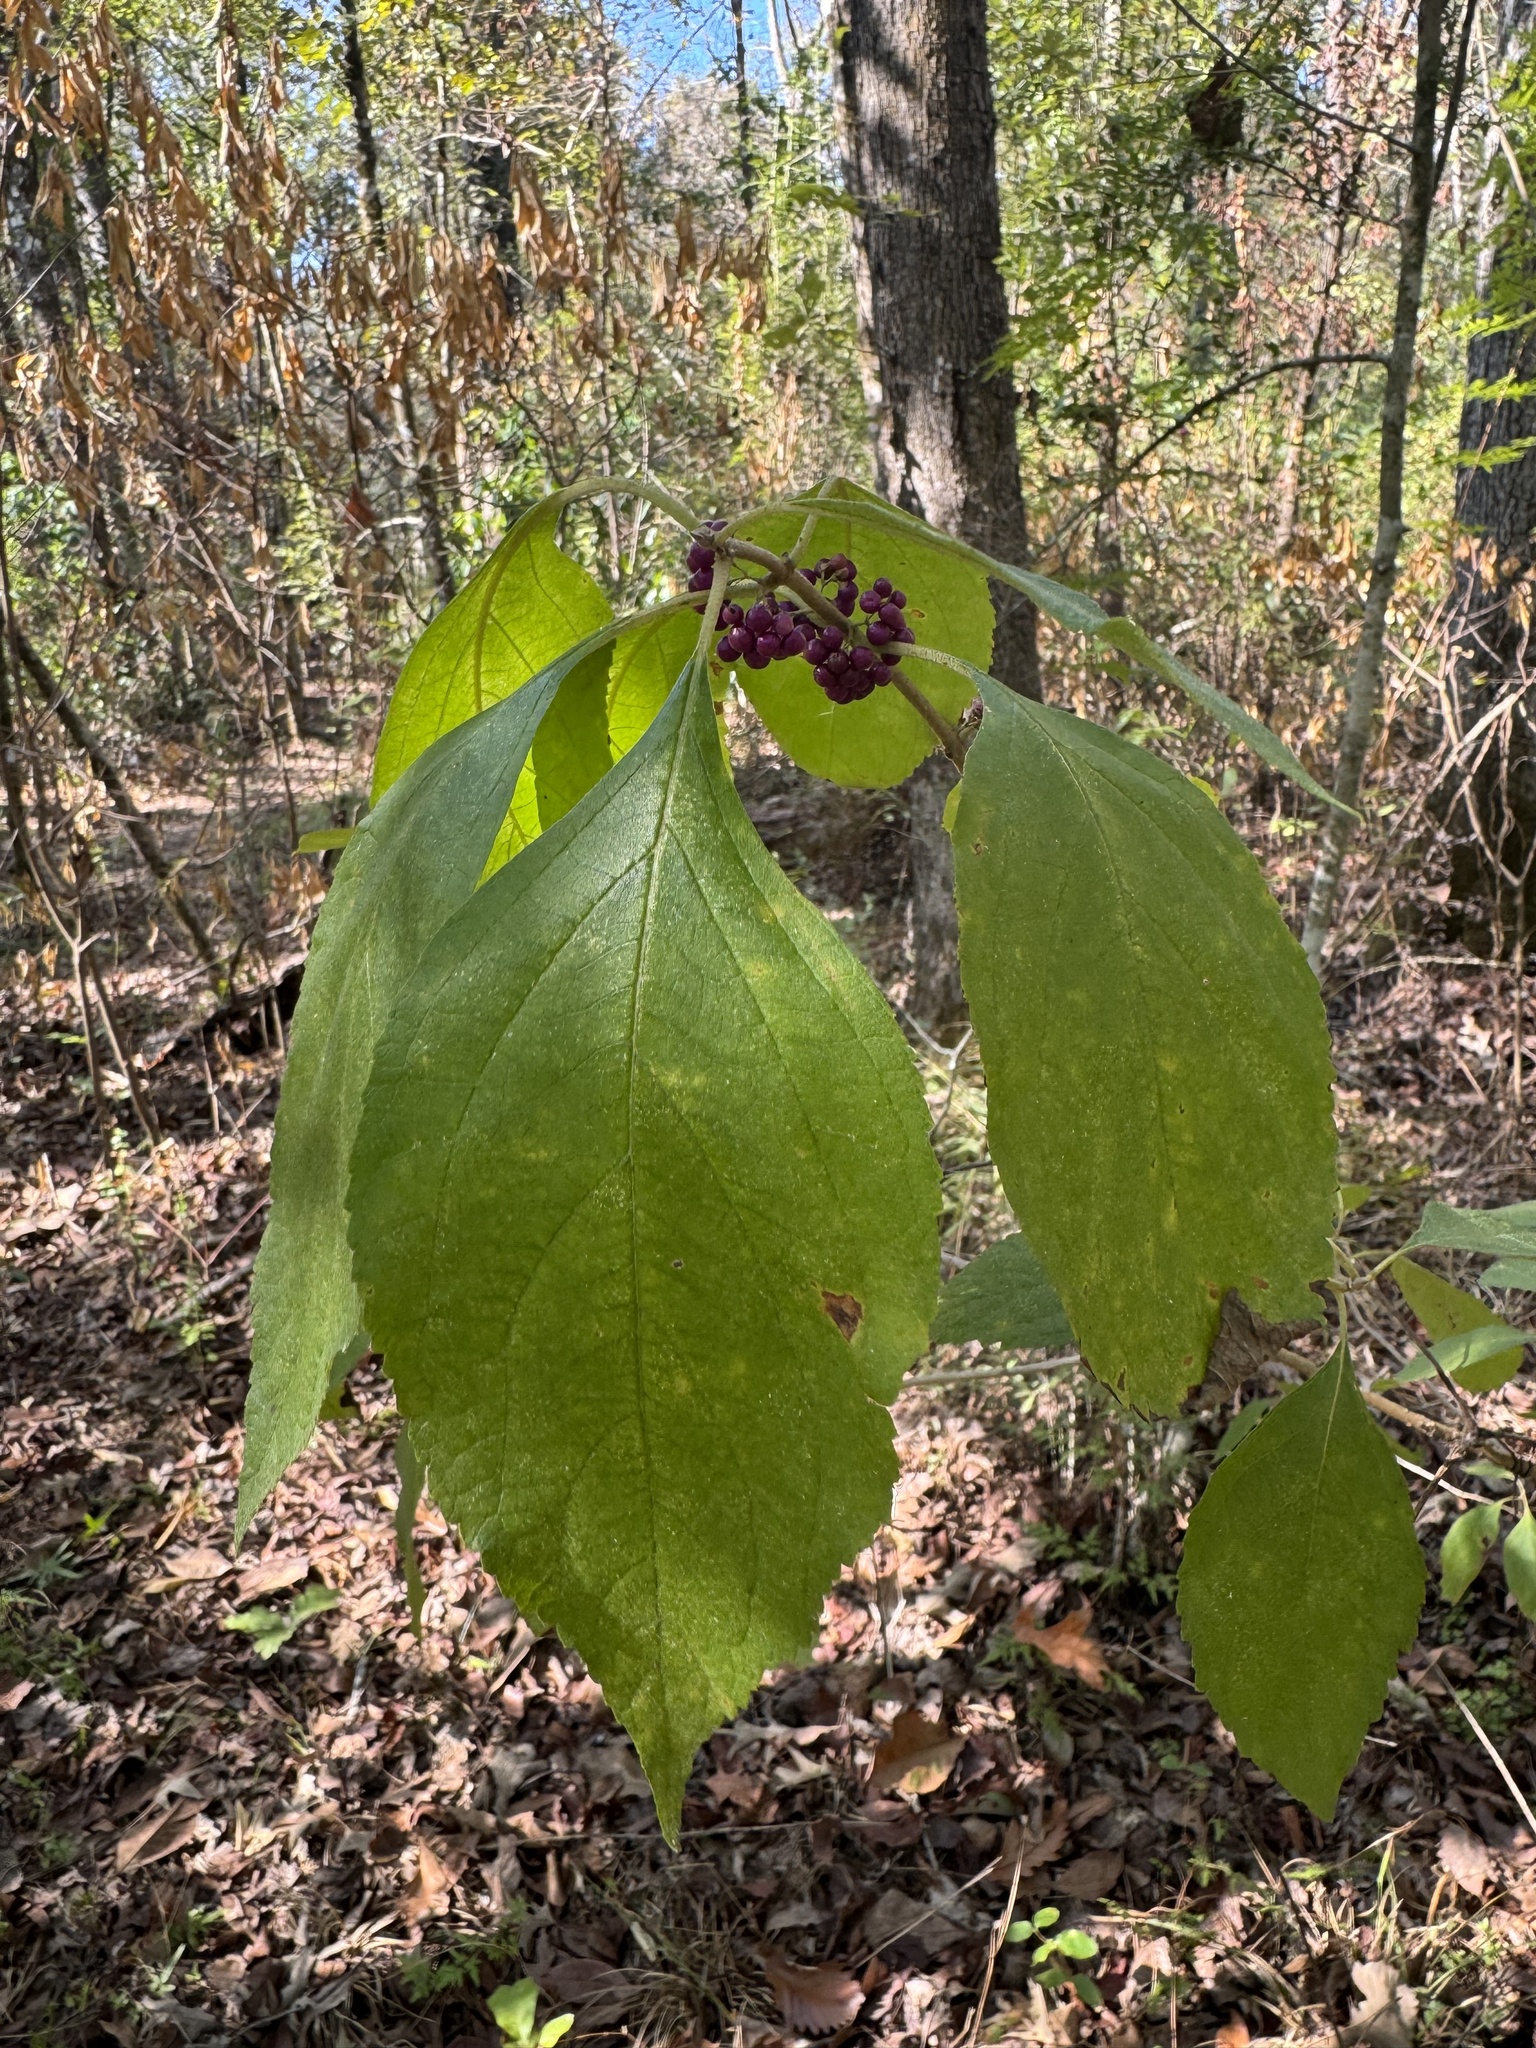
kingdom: Plantae
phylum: Tracheophyta
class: Magnoliopsida
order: Lamiales
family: Lamiaceae
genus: Callicarpa
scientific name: Callicarpa americana
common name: American beautyberry
